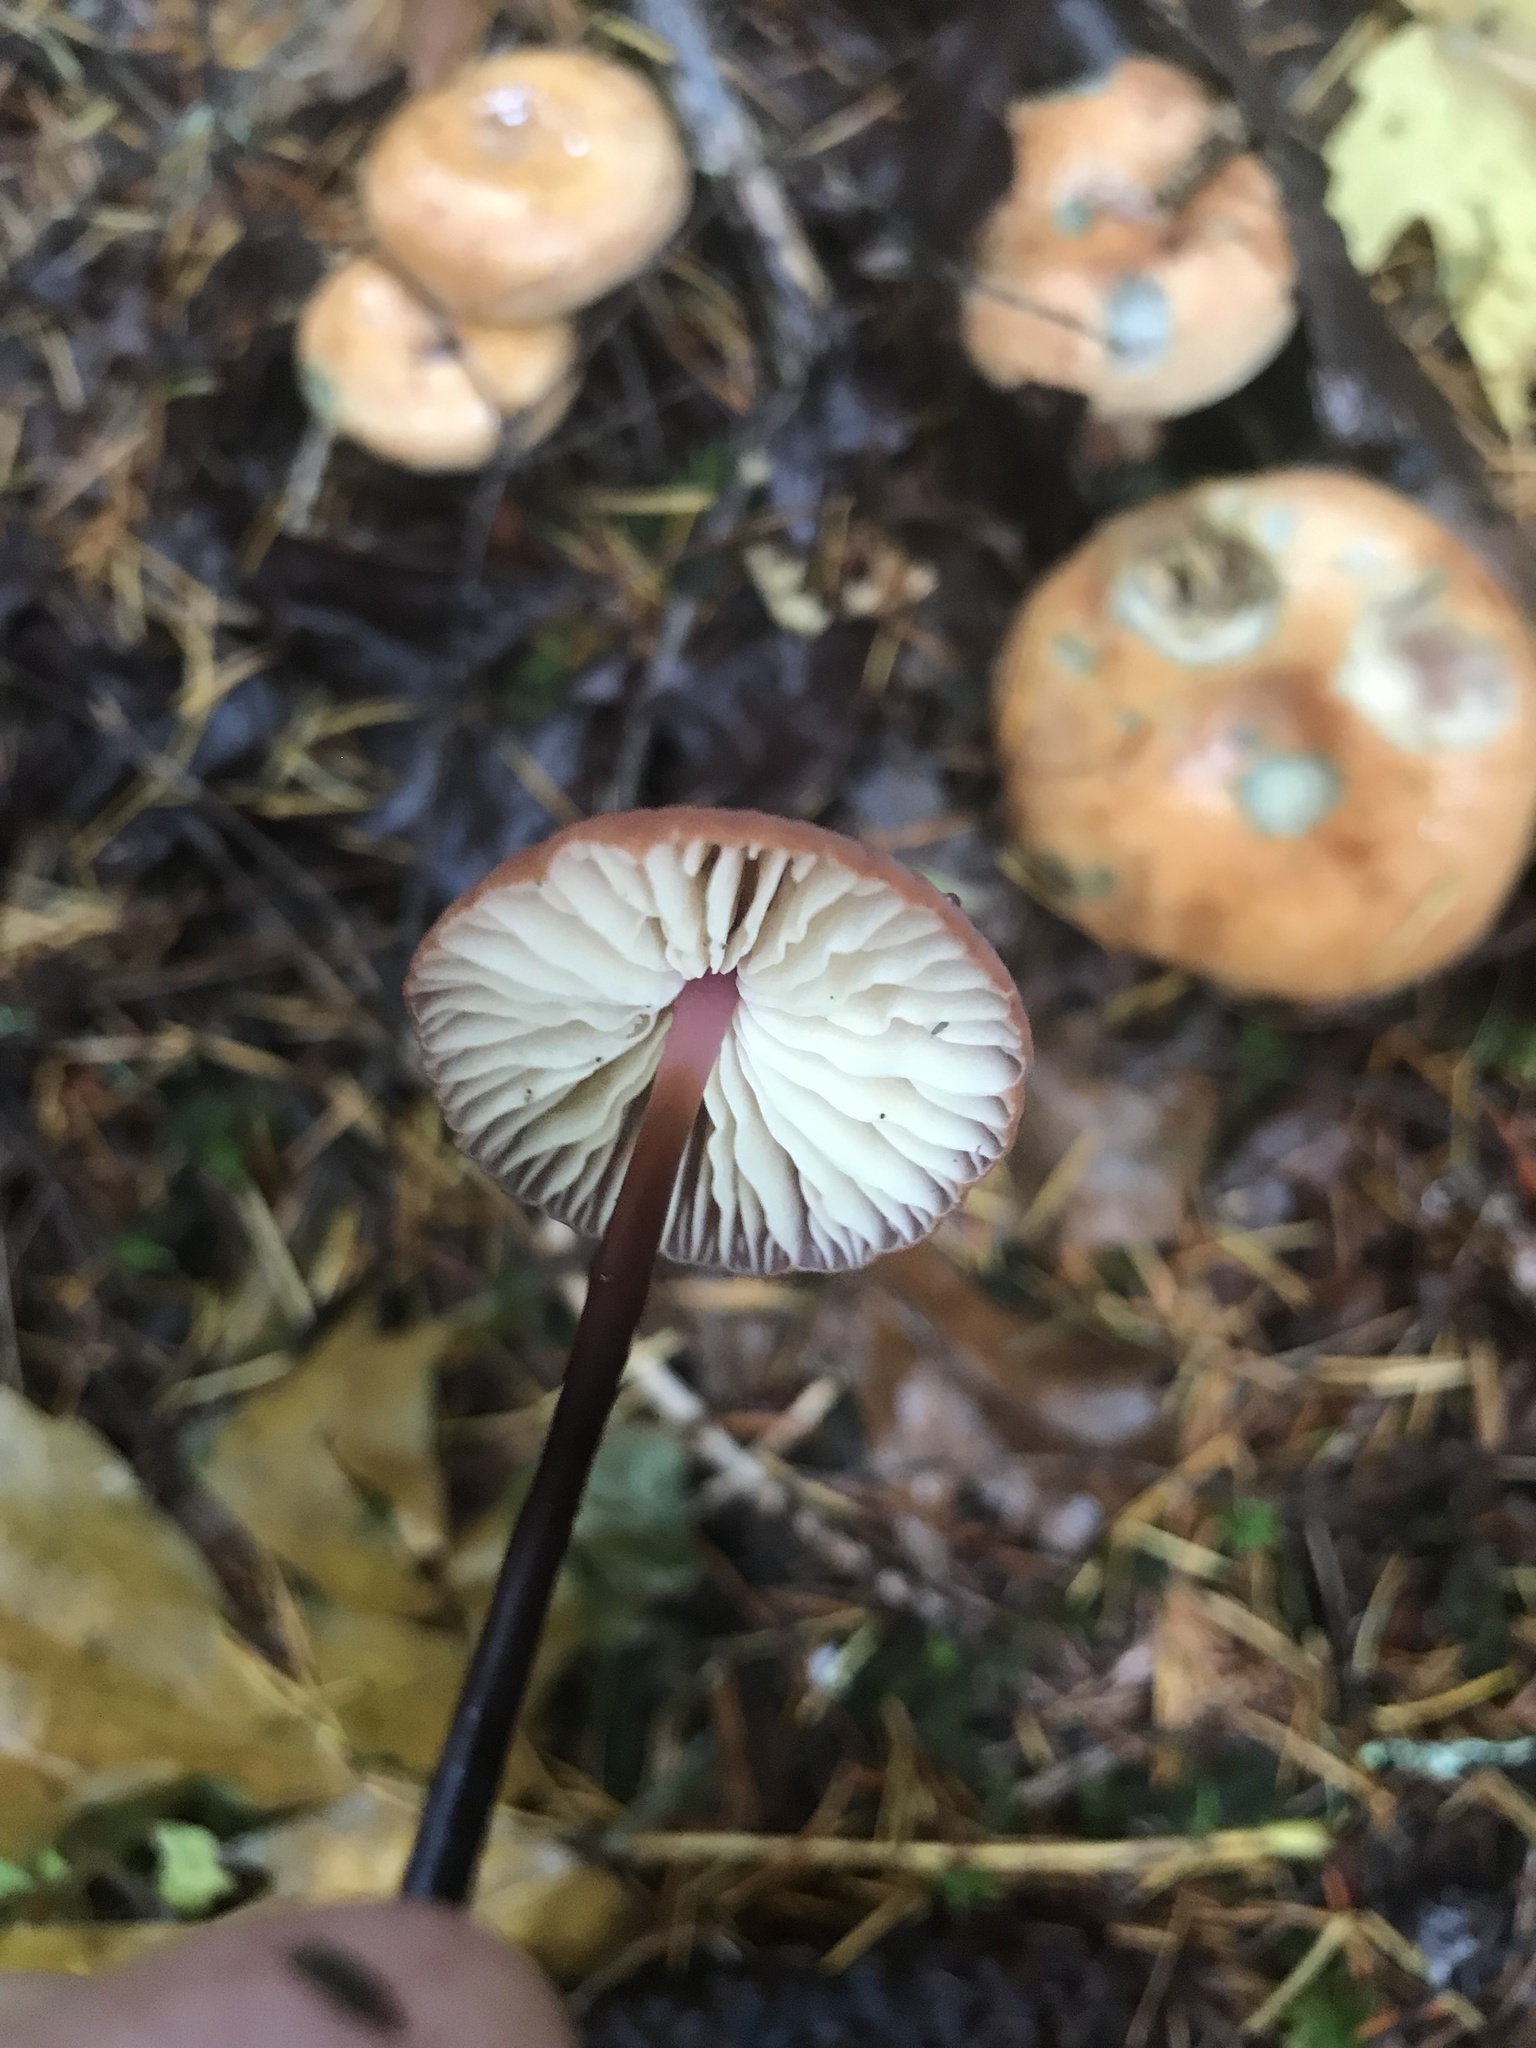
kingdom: Fungi
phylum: Basidiomycota
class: Agaricomycetes
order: Agaricales
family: Marasmiaceae
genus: Marasmius
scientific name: Marasmius plicatulus
